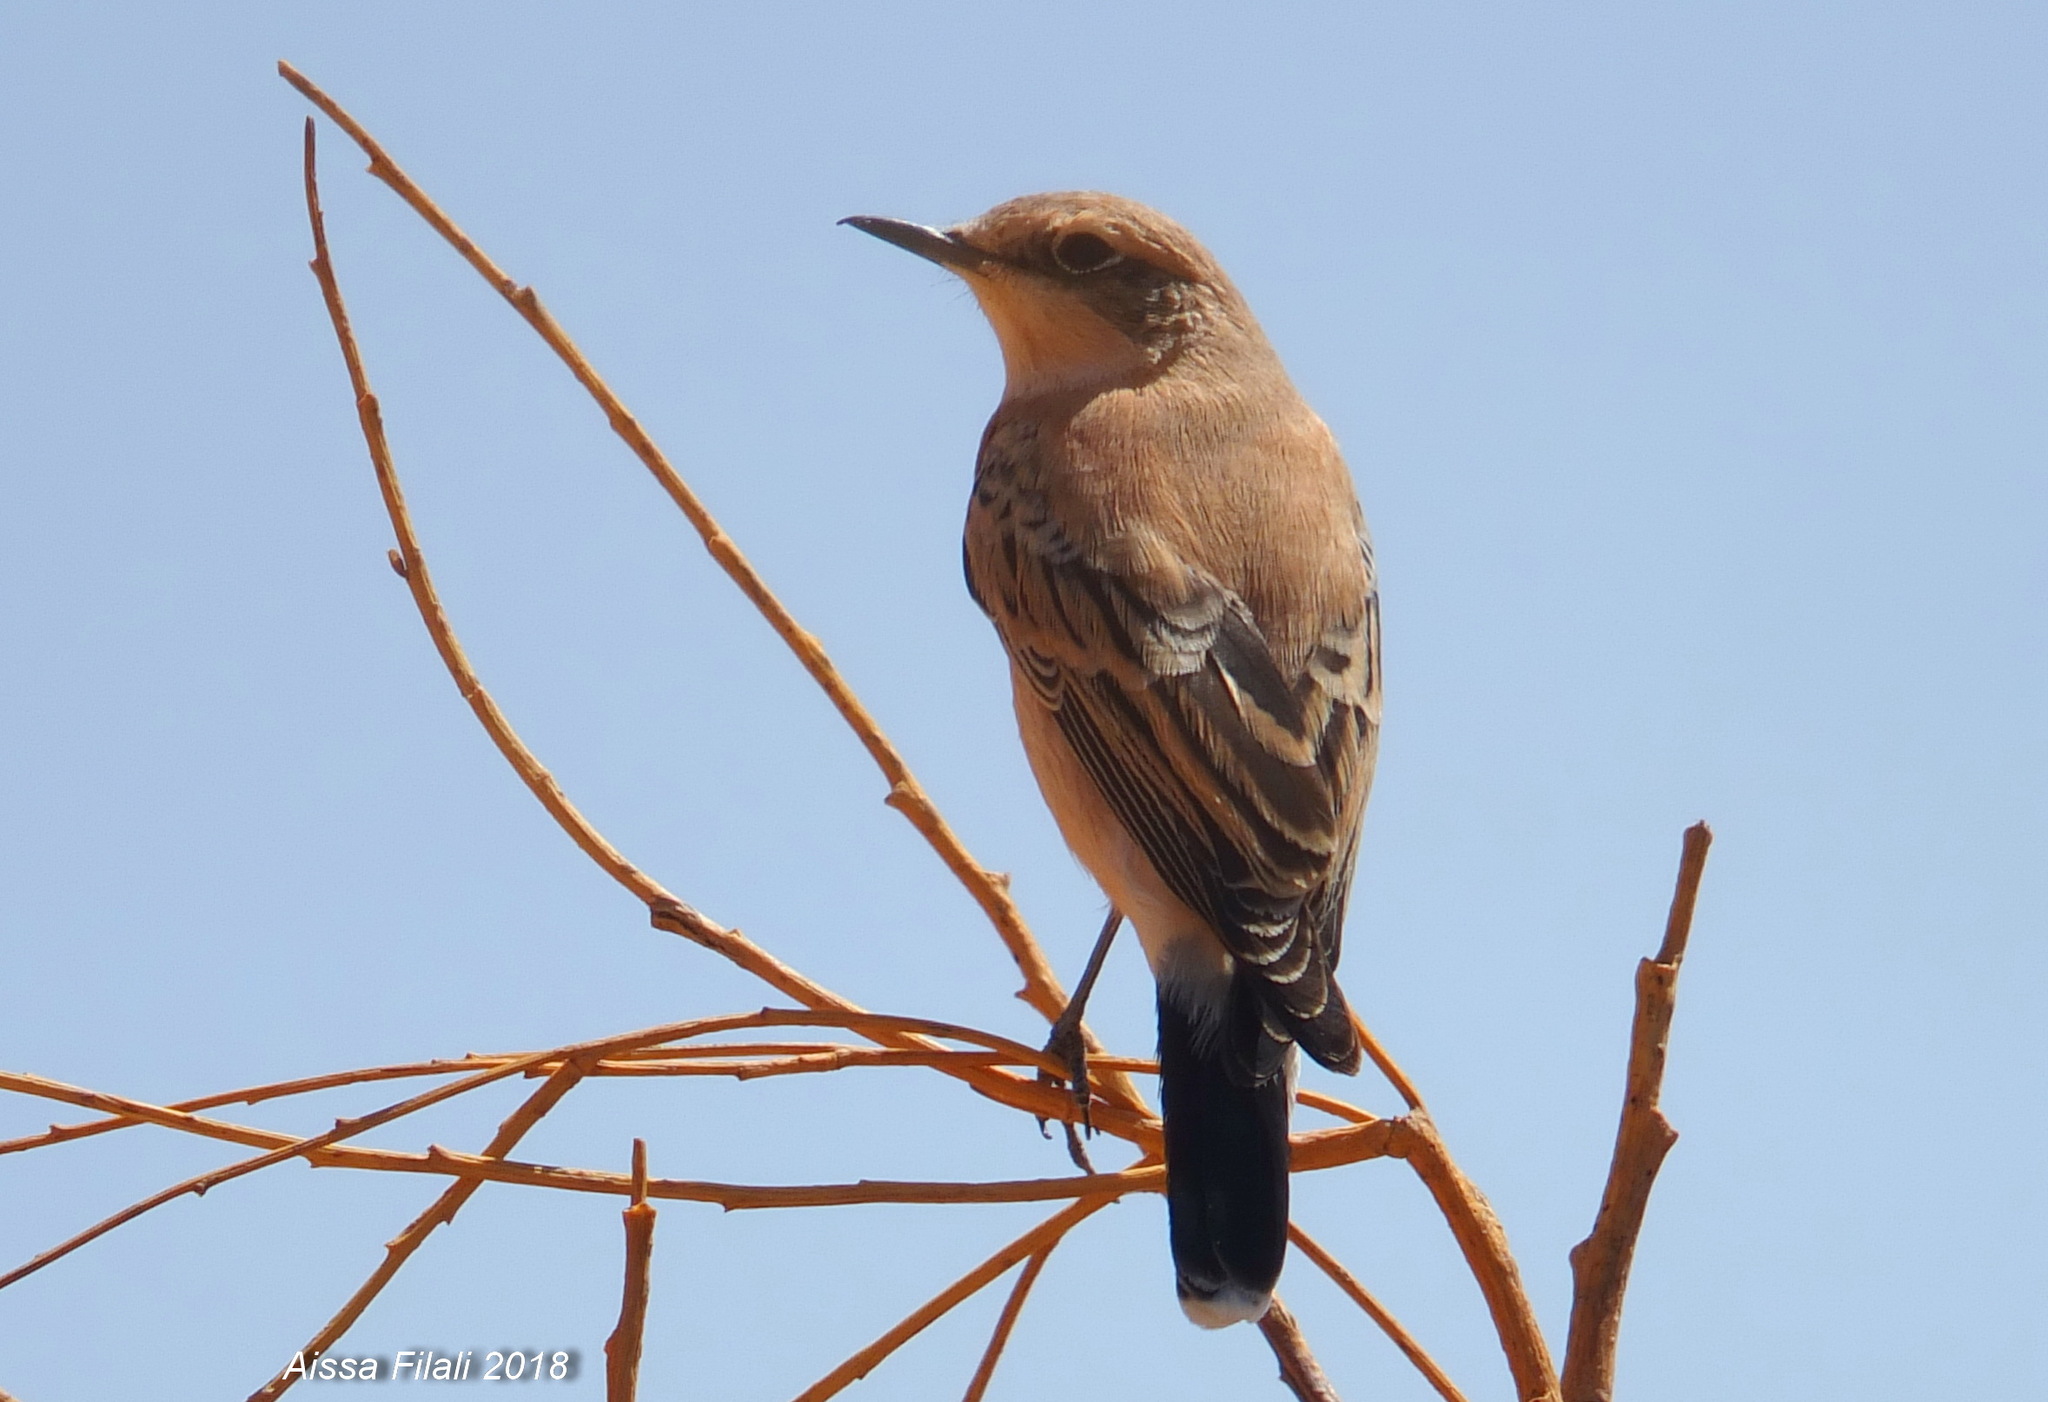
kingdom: Animalia
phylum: Chordata
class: Aves
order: Passeriformes
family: Muscicapidae
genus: Oenanthe
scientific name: Oenanthe deserti
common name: Desert wheatear
